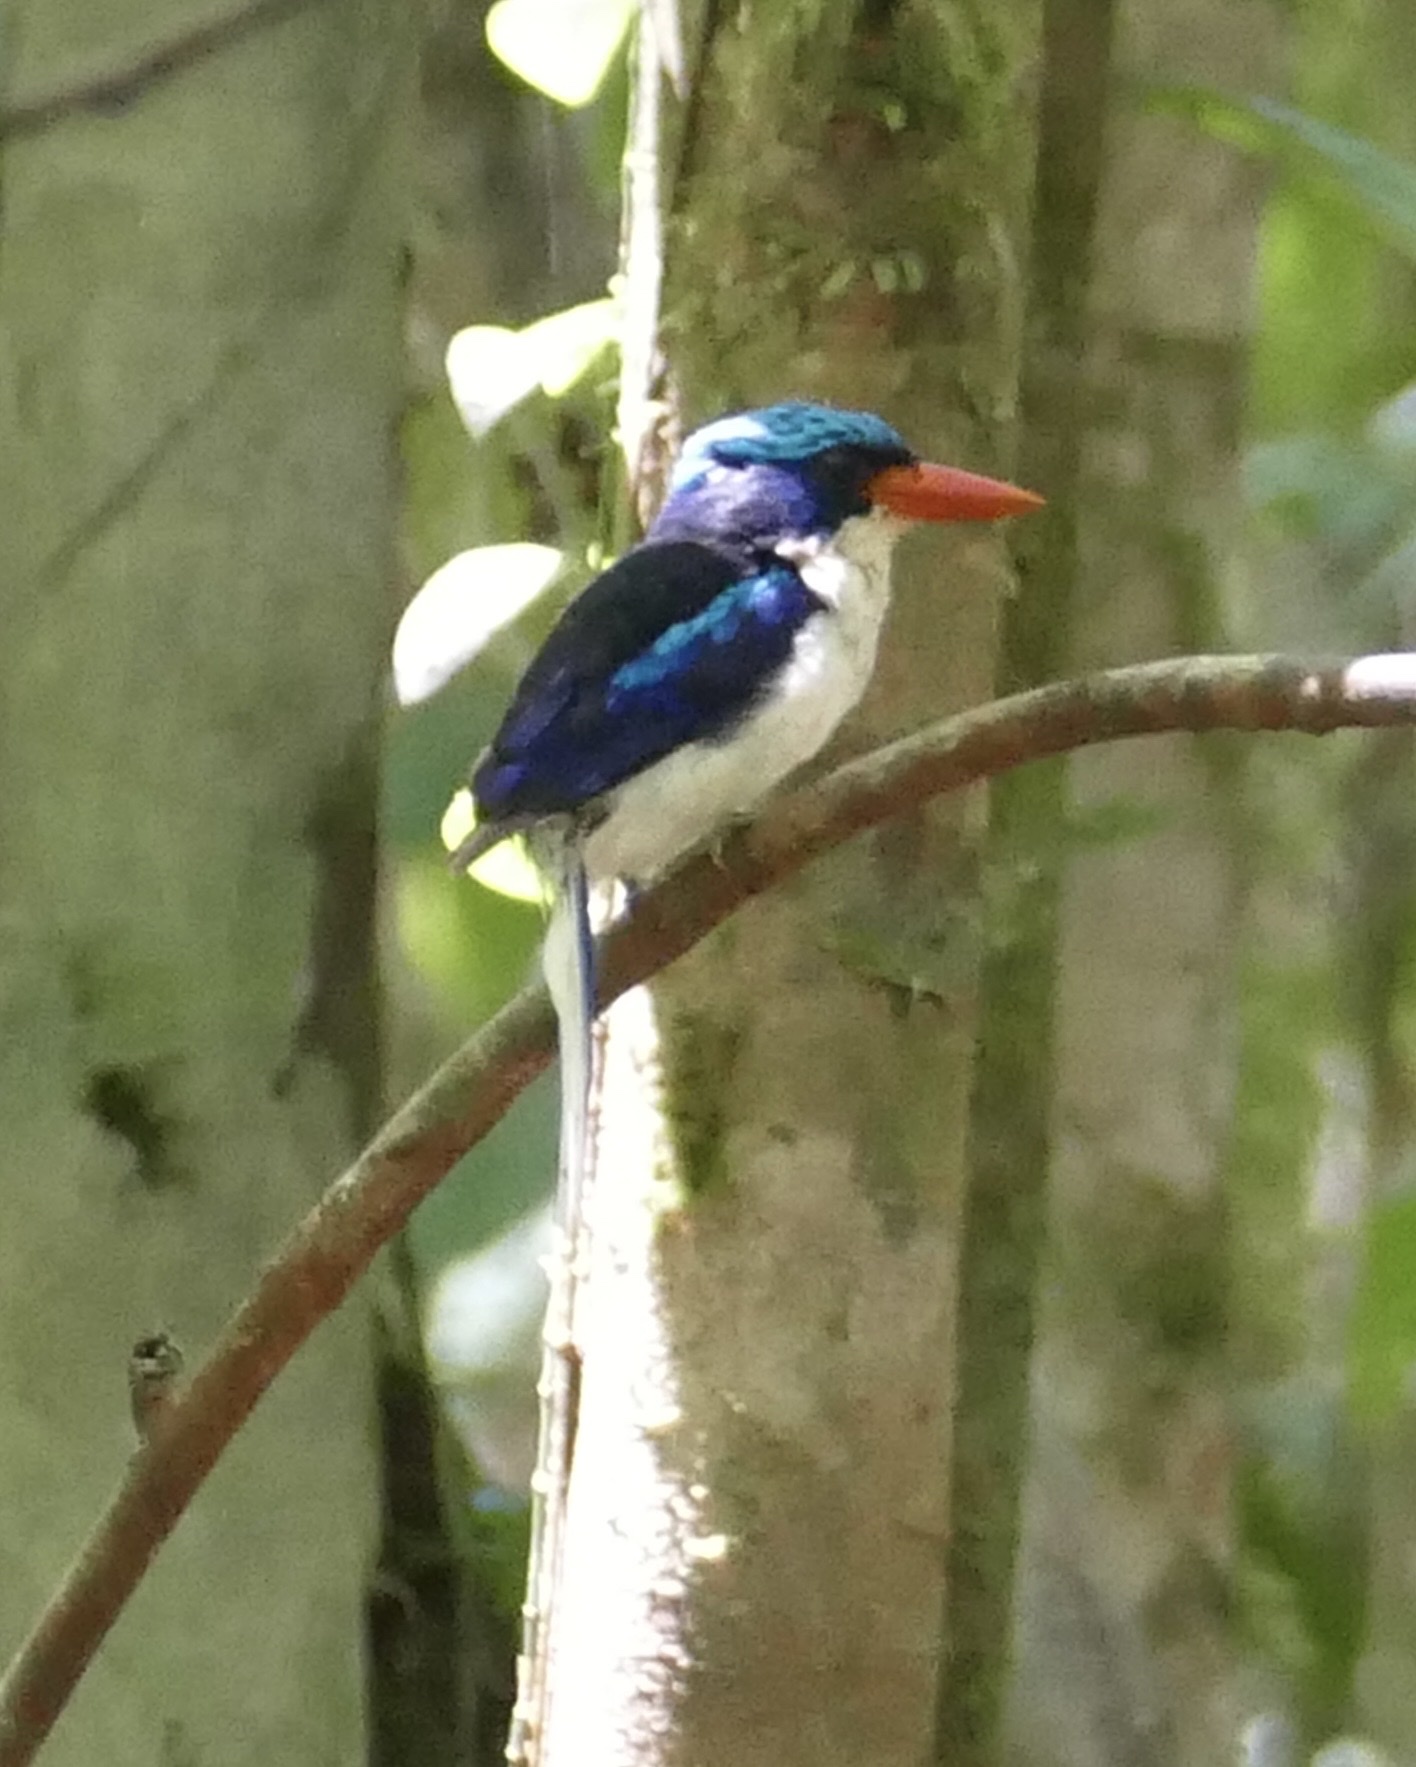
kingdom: Animalia
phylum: Chordata
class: Aves
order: Coraciiformes
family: Alcedinidae
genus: Tanysiptera
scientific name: Tanysiptera galatea
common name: Common paradise-kingfisher
